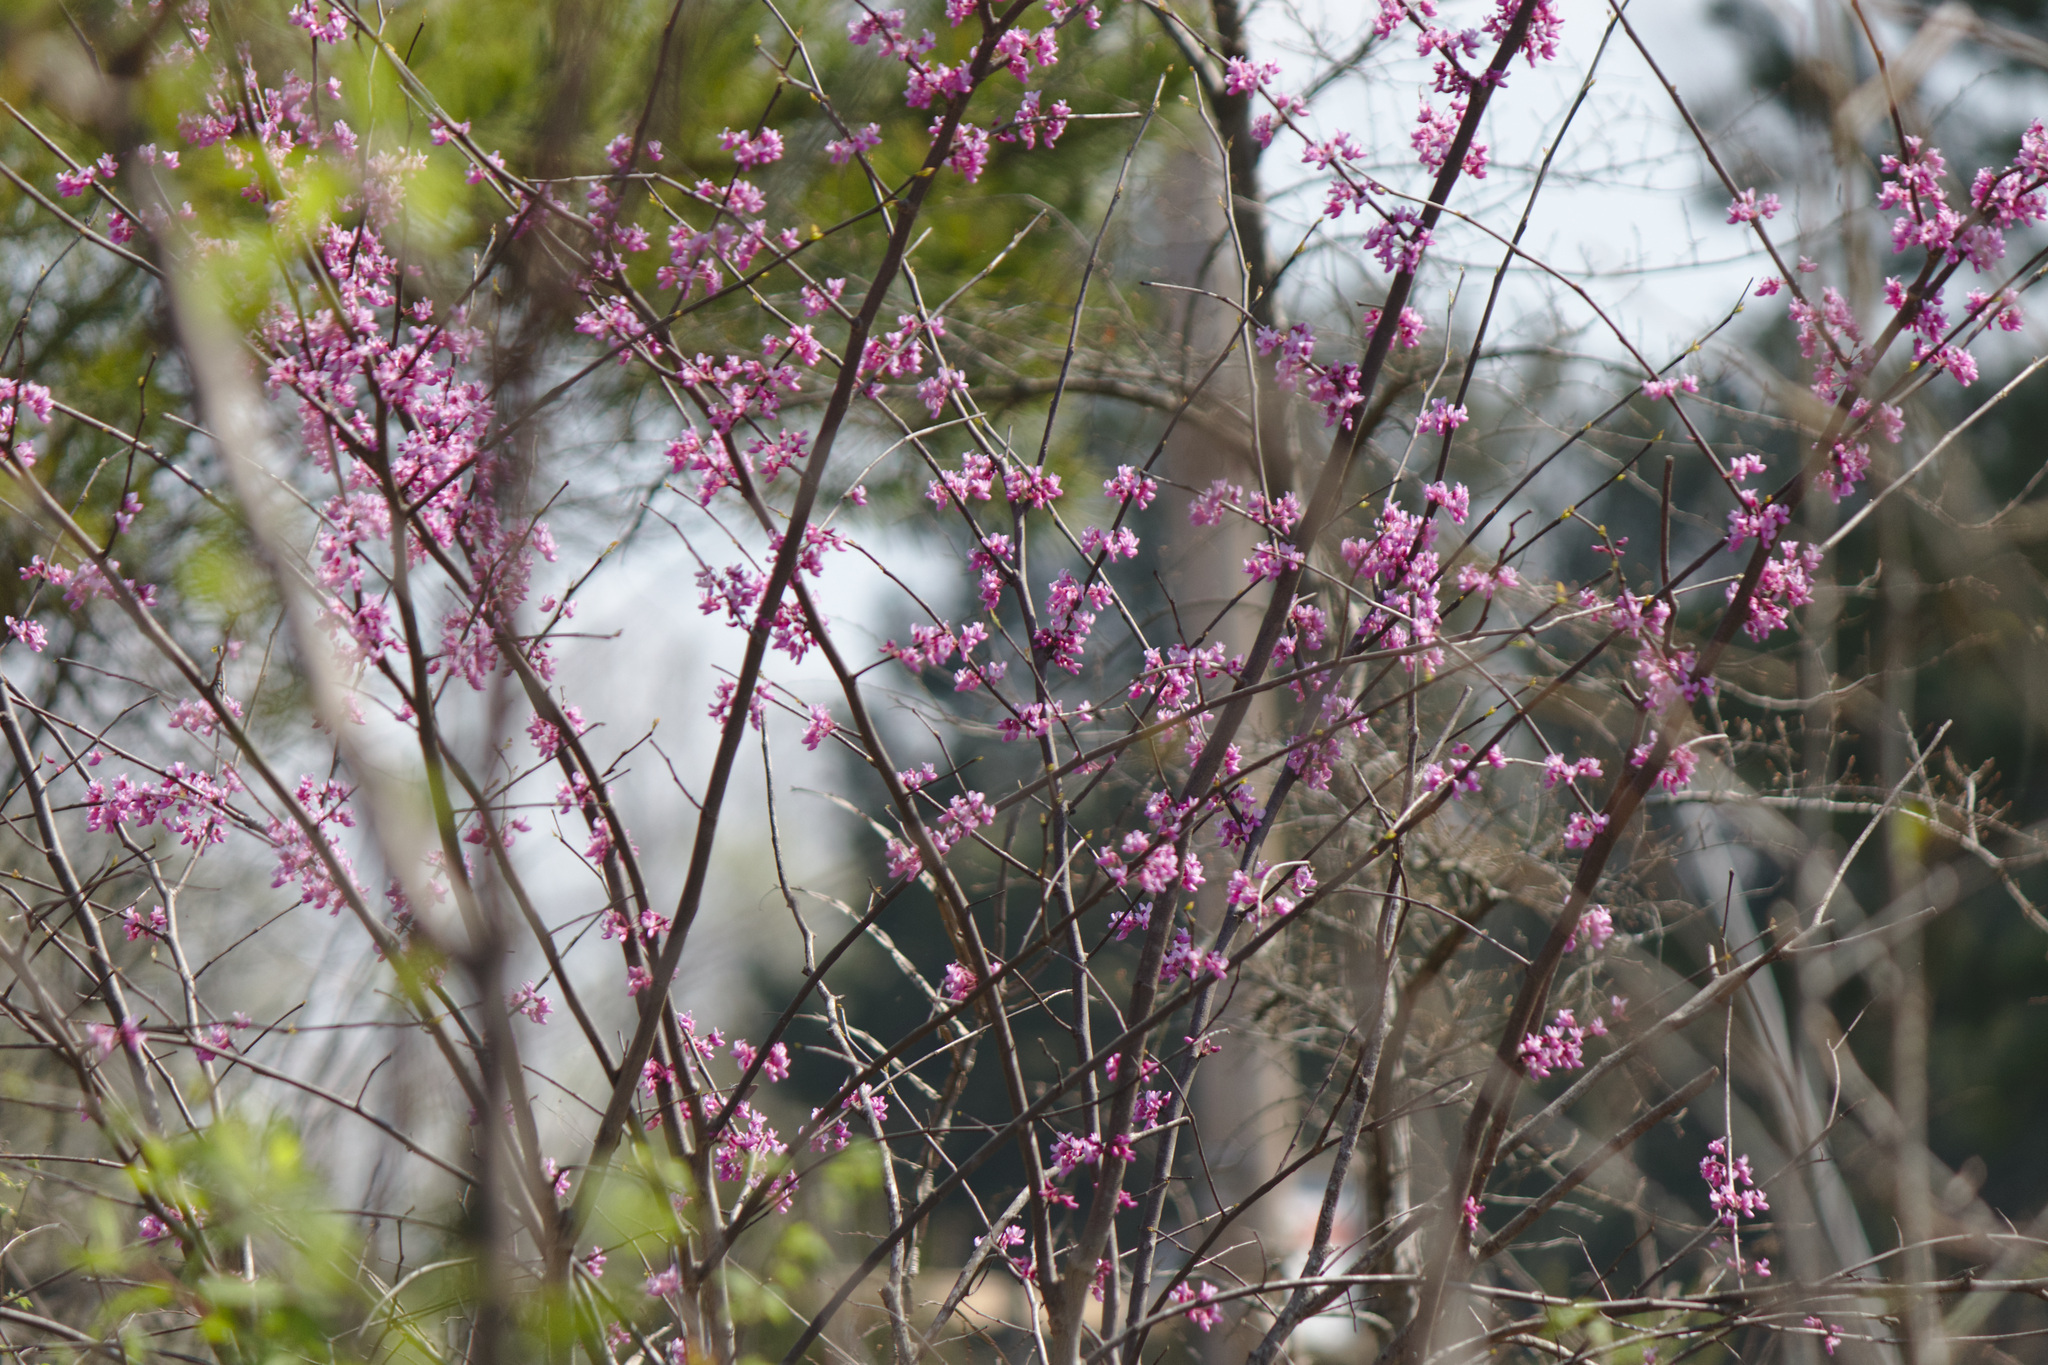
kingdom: Plantae
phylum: Tracheophyta
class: Magnoliopsida
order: Fabales
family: Fabaceae
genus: Cercis
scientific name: Cercis canadensis
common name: Eastern redbud
